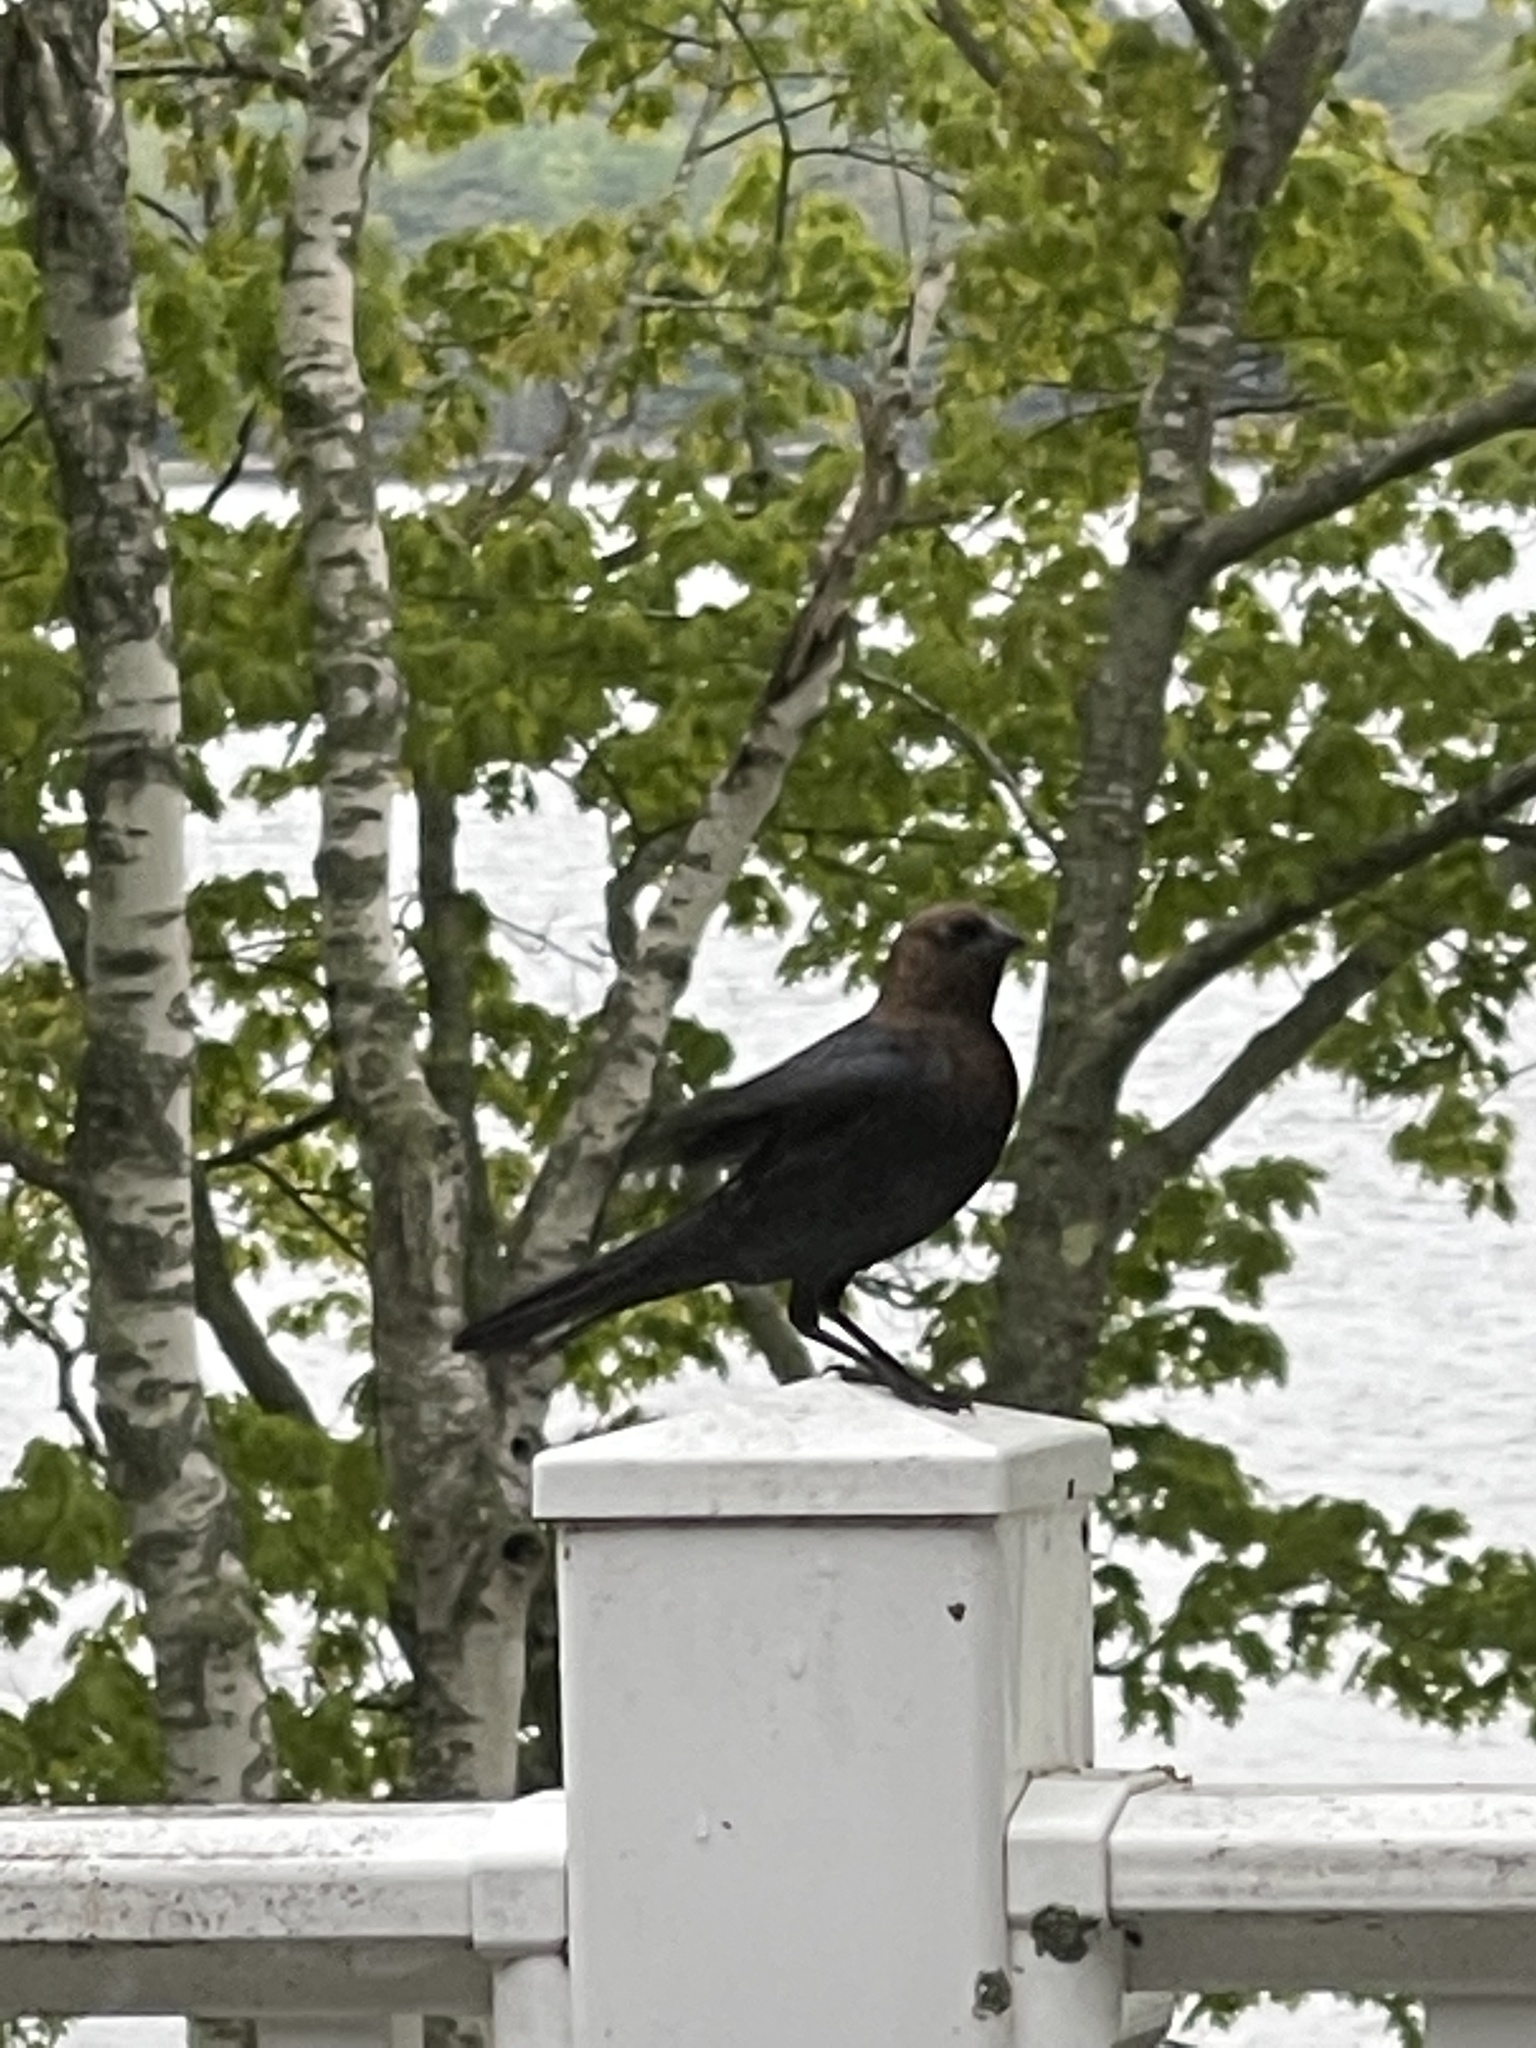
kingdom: Animalia
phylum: Chordata
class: Aves
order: Passeriformes
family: Icteridae
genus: Molothrus
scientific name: Molothrus ater
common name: Brown-headed cowbird
